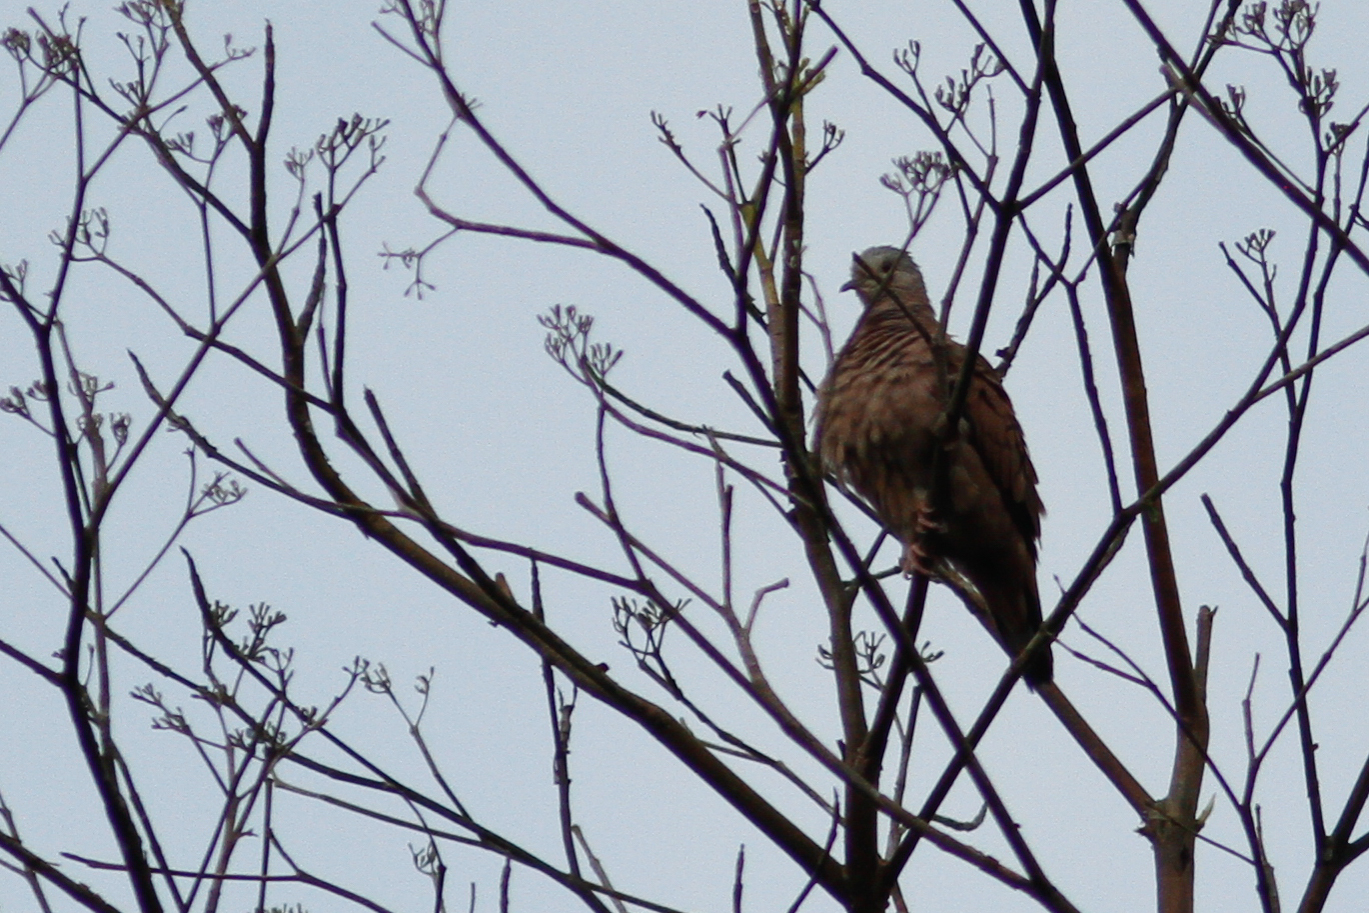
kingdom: Animalia
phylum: Chordata
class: Aves
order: Columbiformes
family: Columbidae
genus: Columbina
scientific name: Columbina talpacoti
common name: Ruddy ground dove
